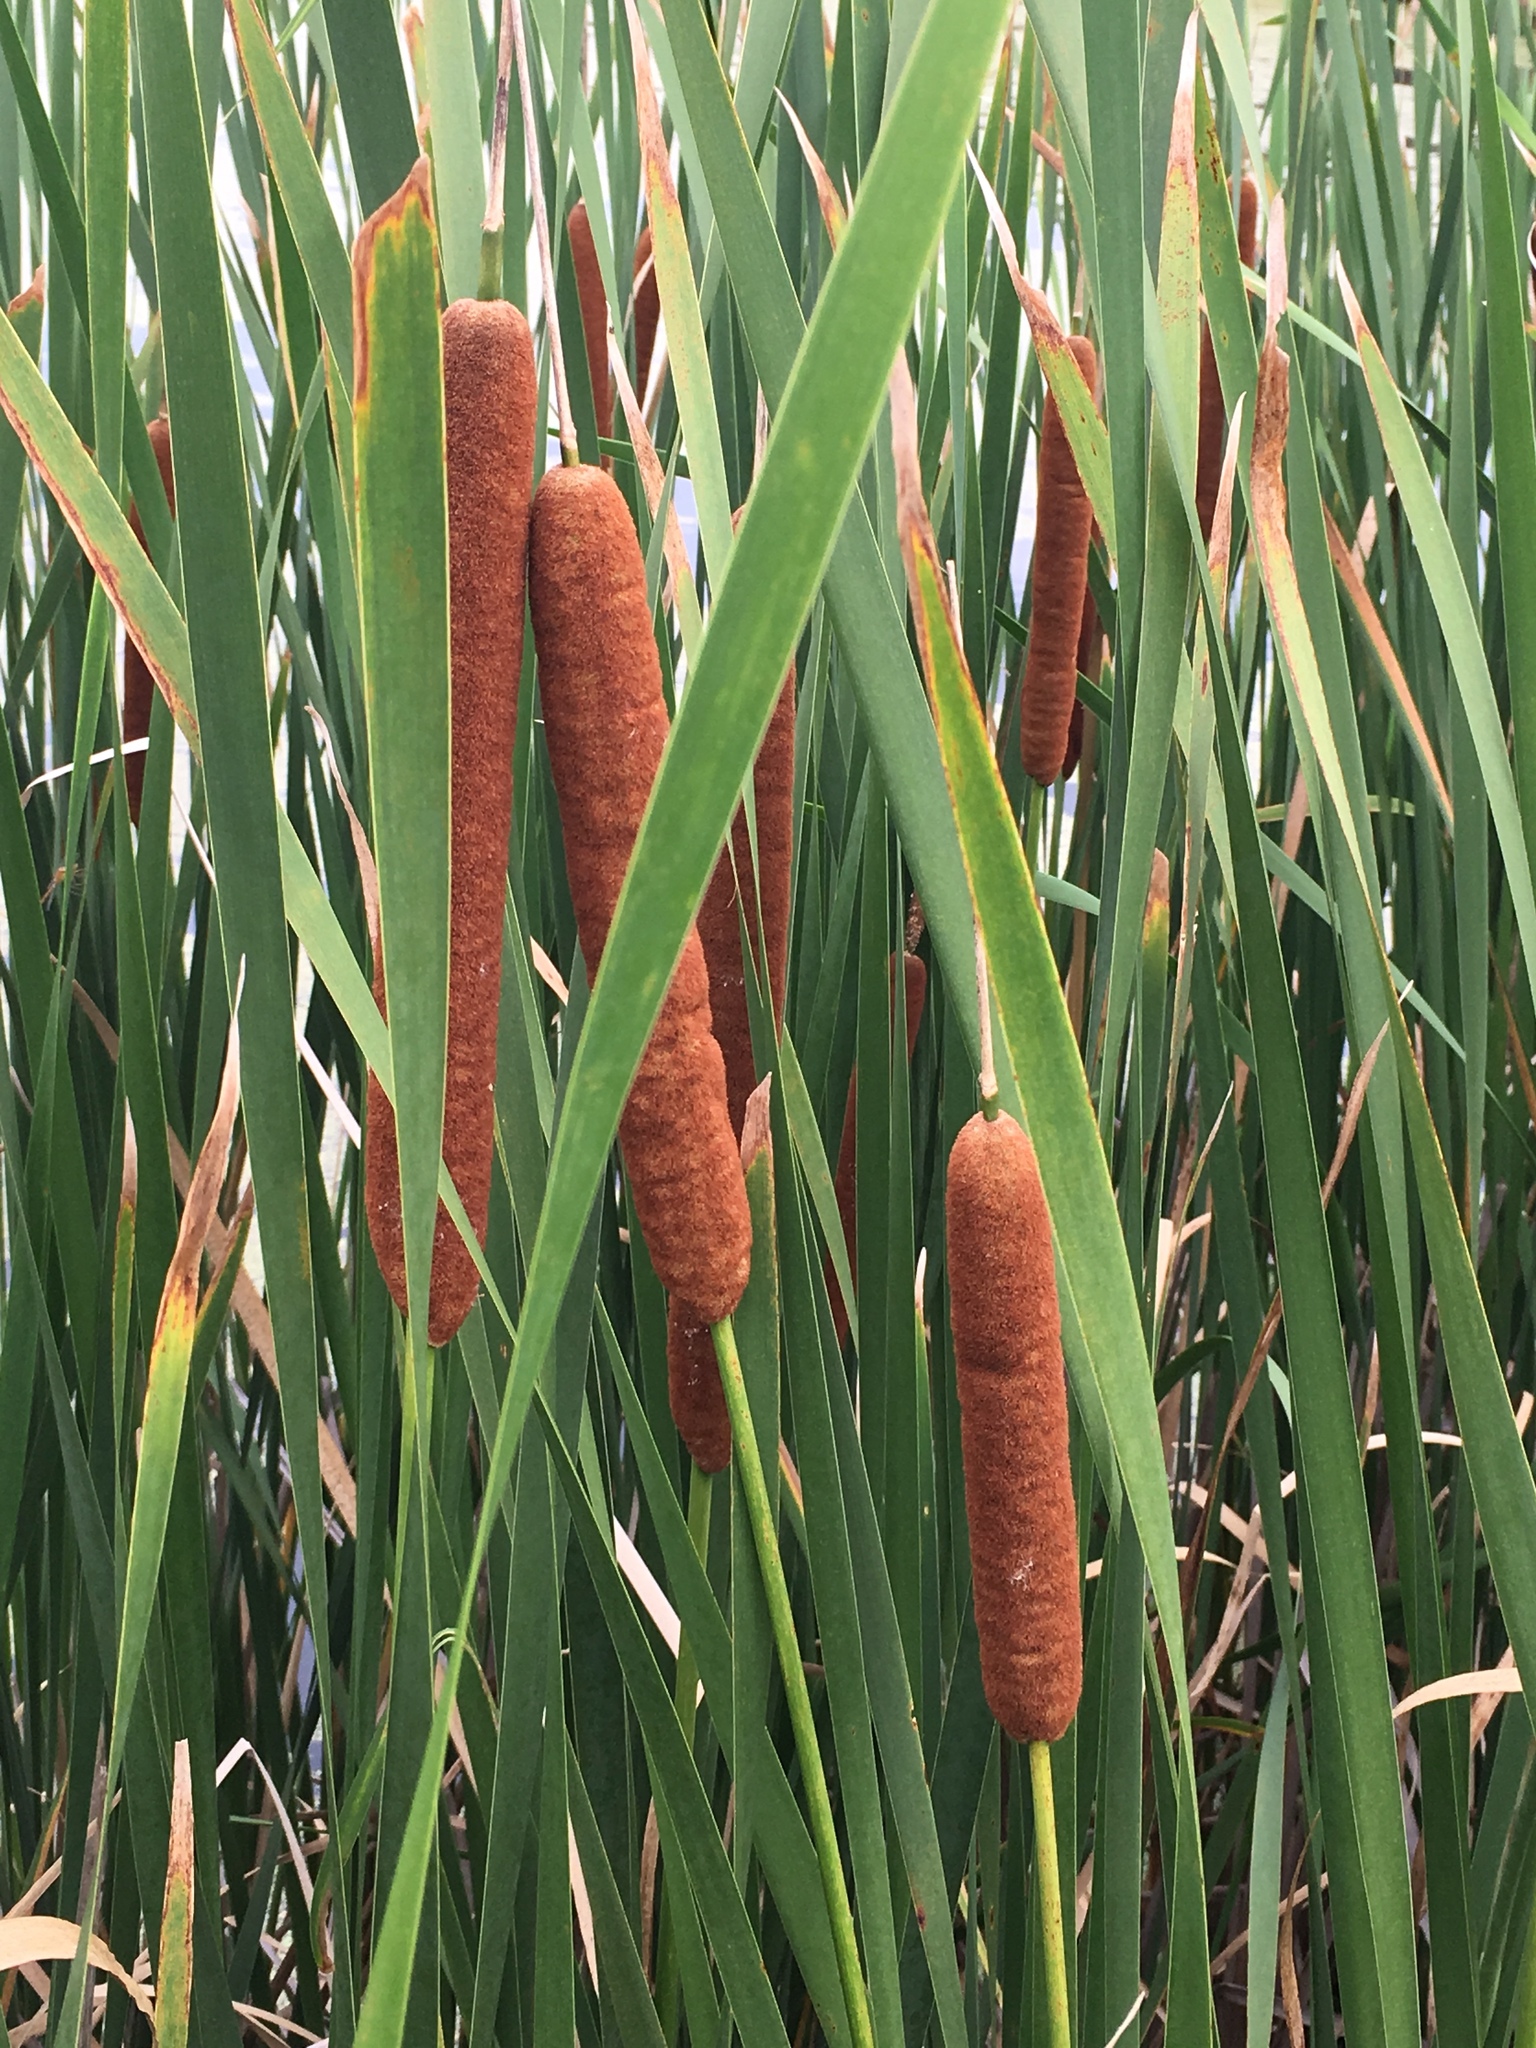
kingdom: Plantae
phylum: Tracheophyta
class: Liliopsida
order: Poales
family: Typhaceae
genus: Typha
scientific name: Typha glauca
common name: Blue cattail
